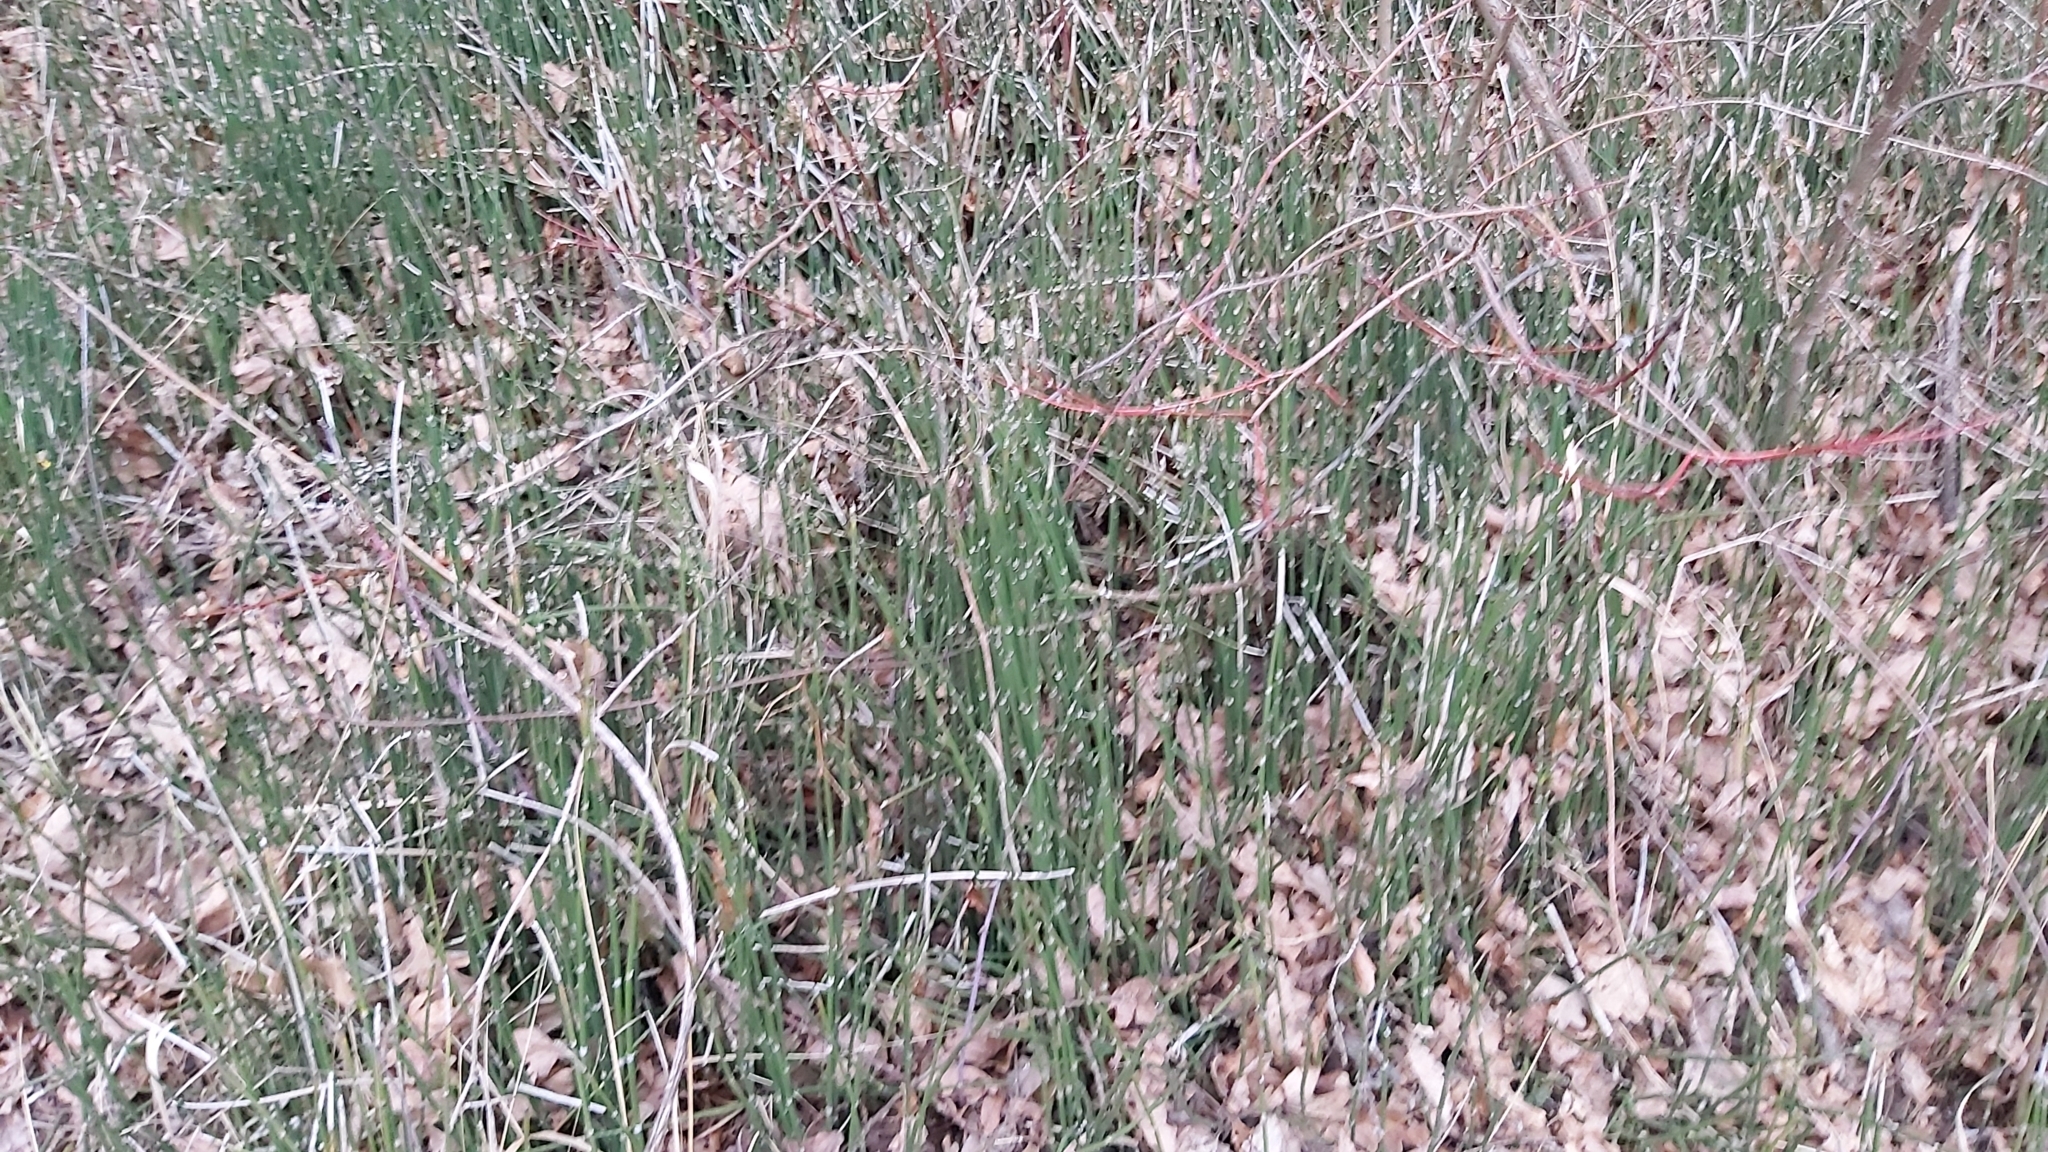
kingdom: Plantae
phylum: Tracheophyta
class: Polypodiopsida
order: Equisetales
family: Equisetaceae
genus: Equisetum
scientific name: Equisetum hyemale
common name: Rough horsetail
